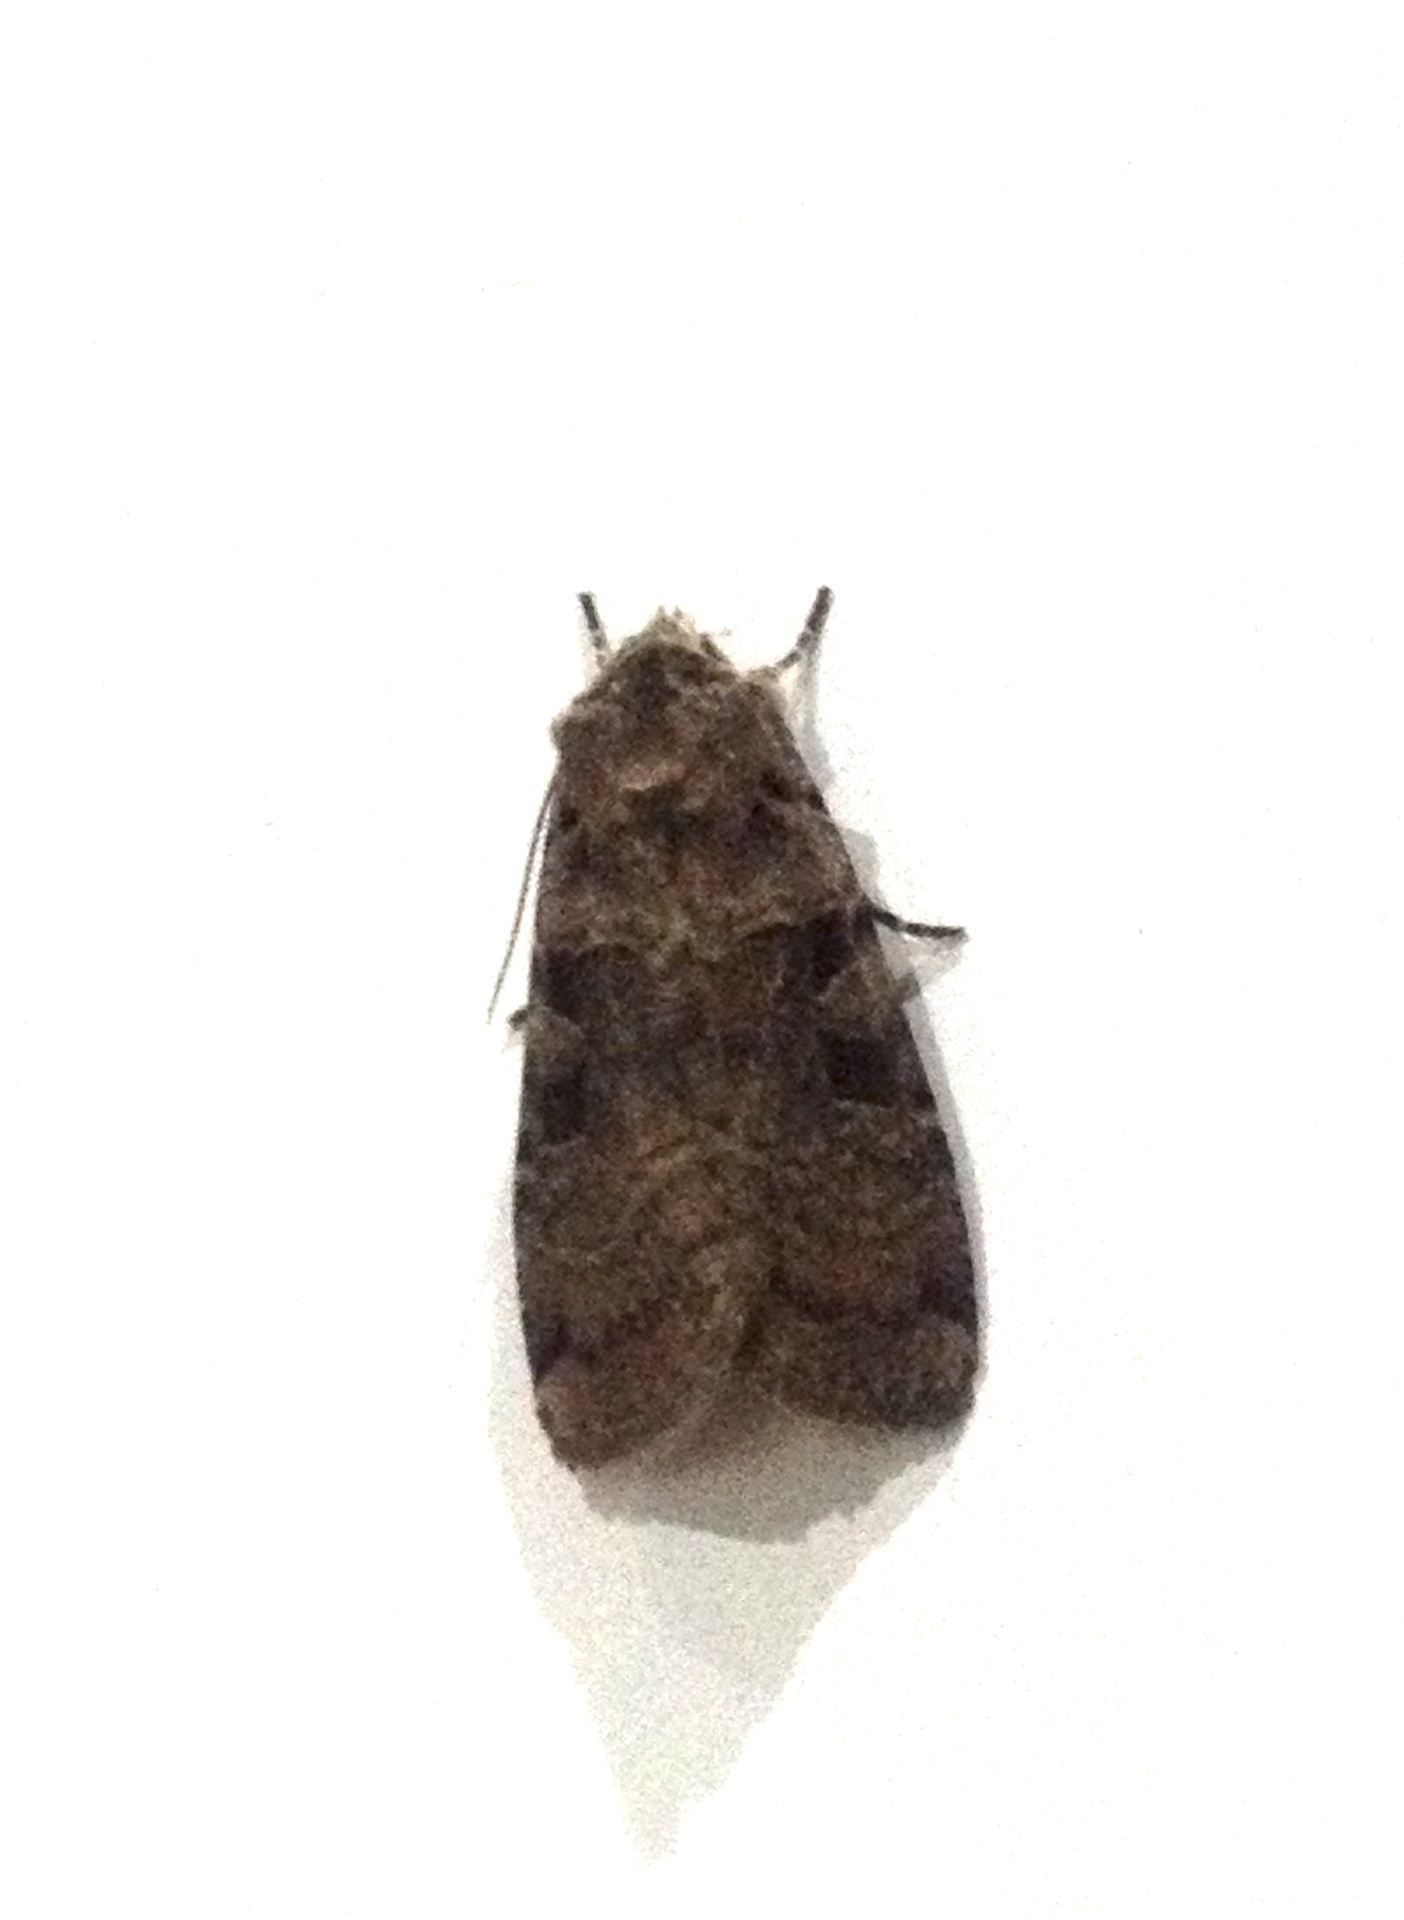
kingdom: Animalia
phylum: Arthropoda
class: Insecta
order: Lepidoptera
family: Noctuidae
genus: Xestia
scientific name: Xestia ditrapezium
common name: Triple-spotted clay
